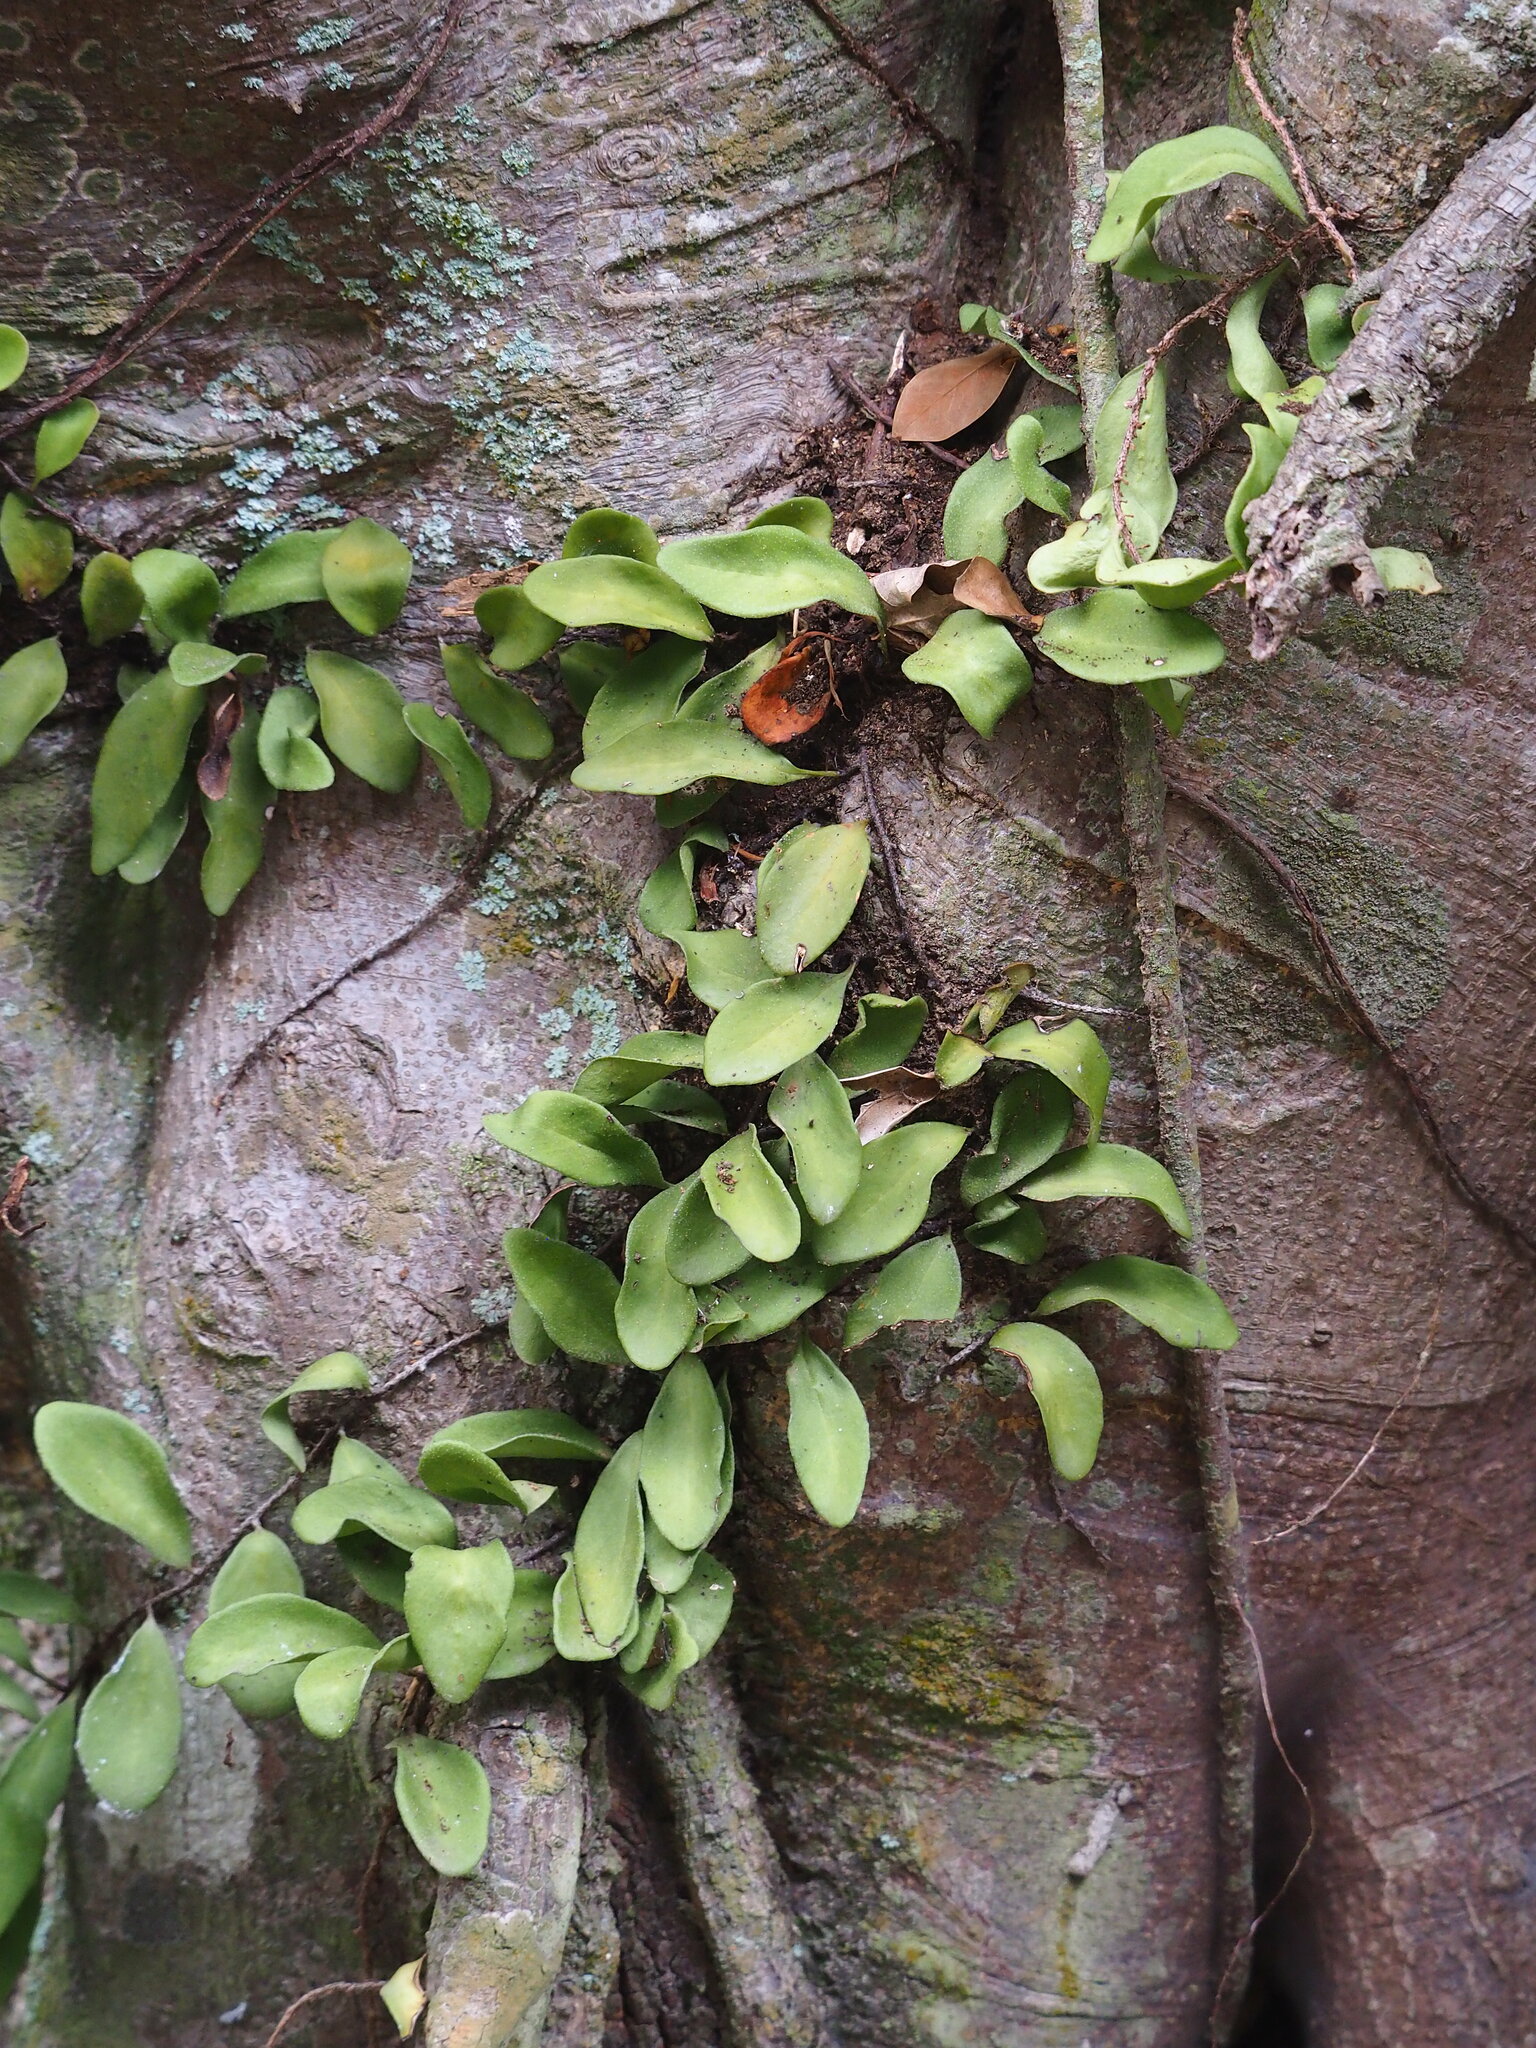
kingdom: Plantae
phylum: Tracheophyta
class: Polypodiopsida
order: Polypodiales
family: Polypodiaceae
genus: Pyrrosia
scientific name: Pyrrosia lanceolata
